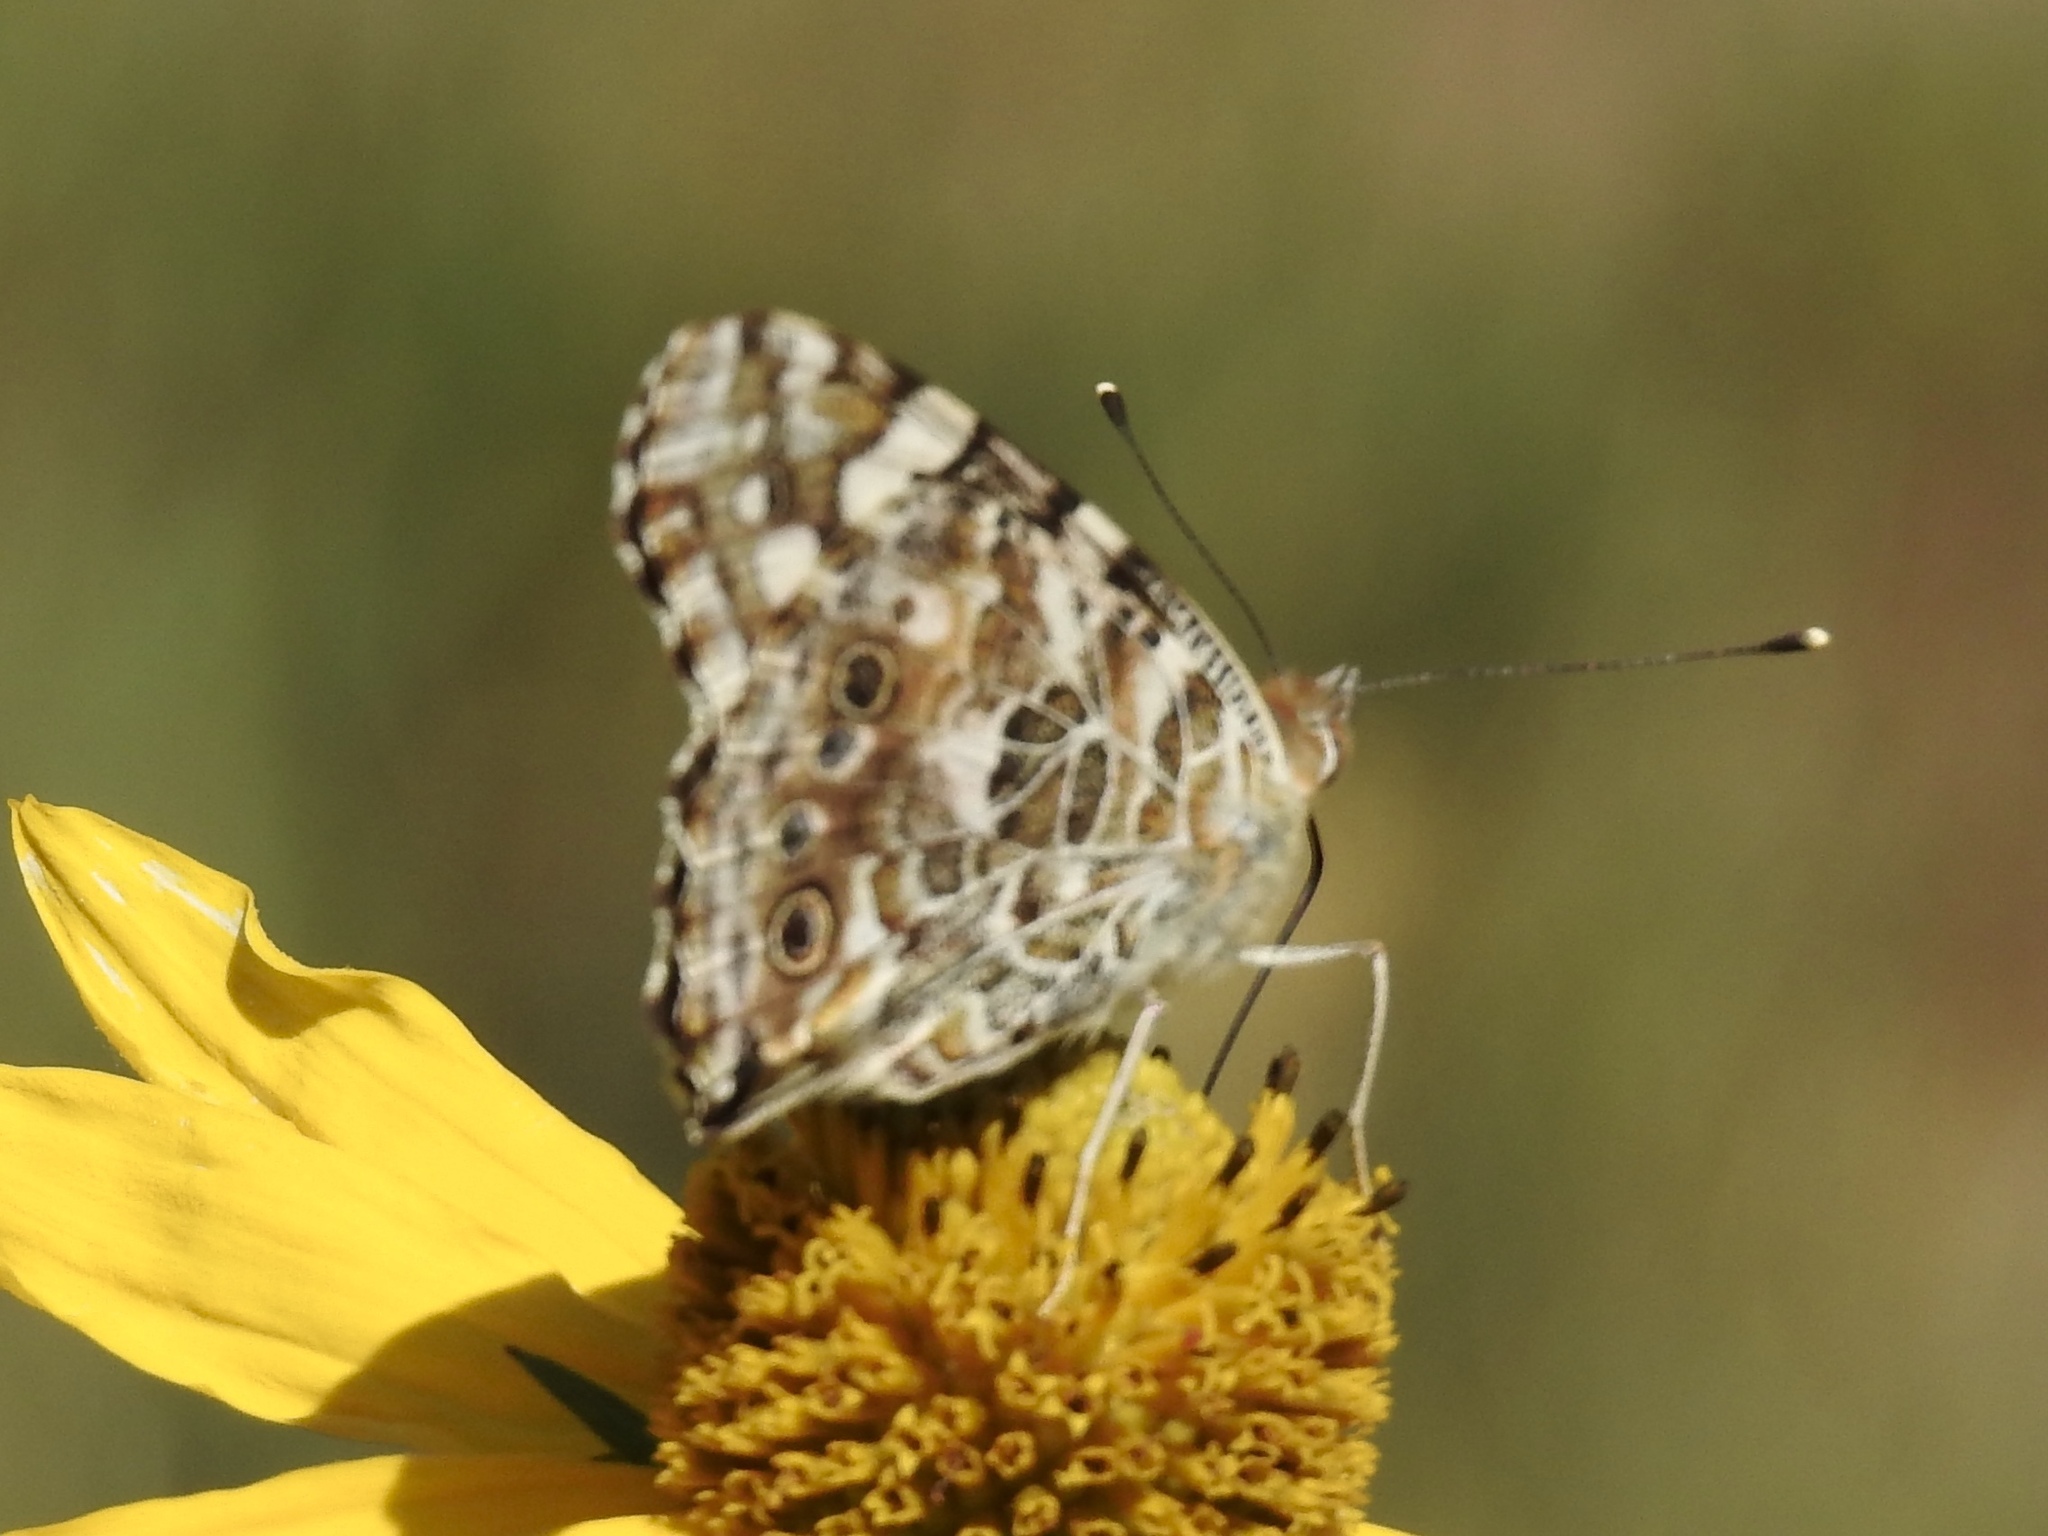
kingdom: Animalia
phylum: Arthropoda
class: Insecta
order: Lepidoptera
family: Nymphalidae
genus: Vanessa
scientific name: Vanessa cardui
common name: Painted lady
